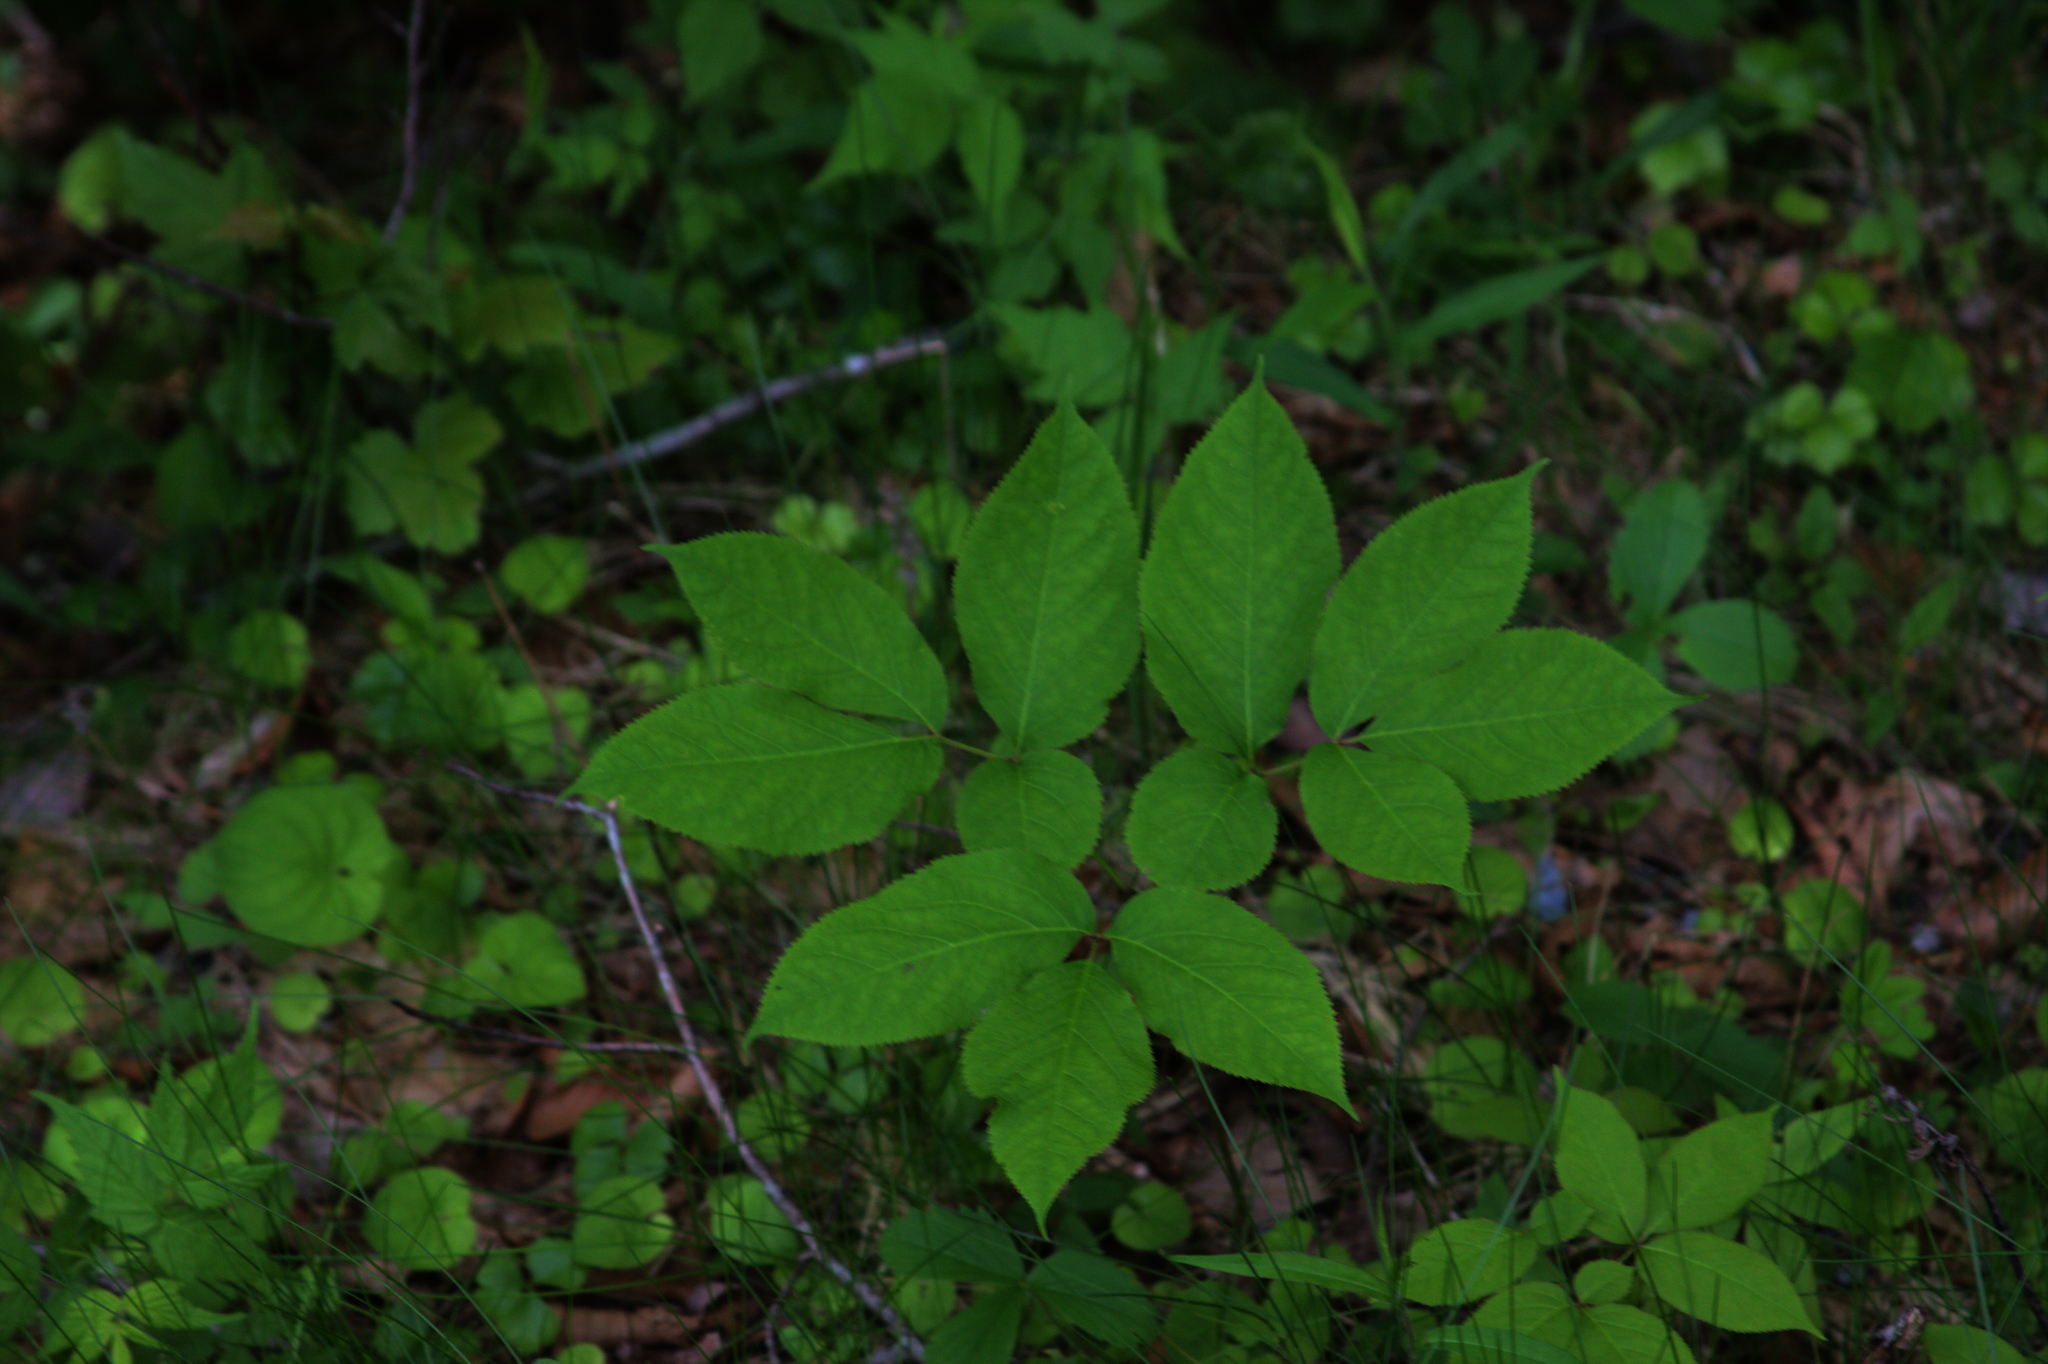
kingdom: Plantae
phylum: Tracheophyta
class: Magnoliopsida
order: Apiales
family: Araliaceae
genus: Aralia
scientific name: Aralia nudicaulis
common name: Wild sarsaparilla
